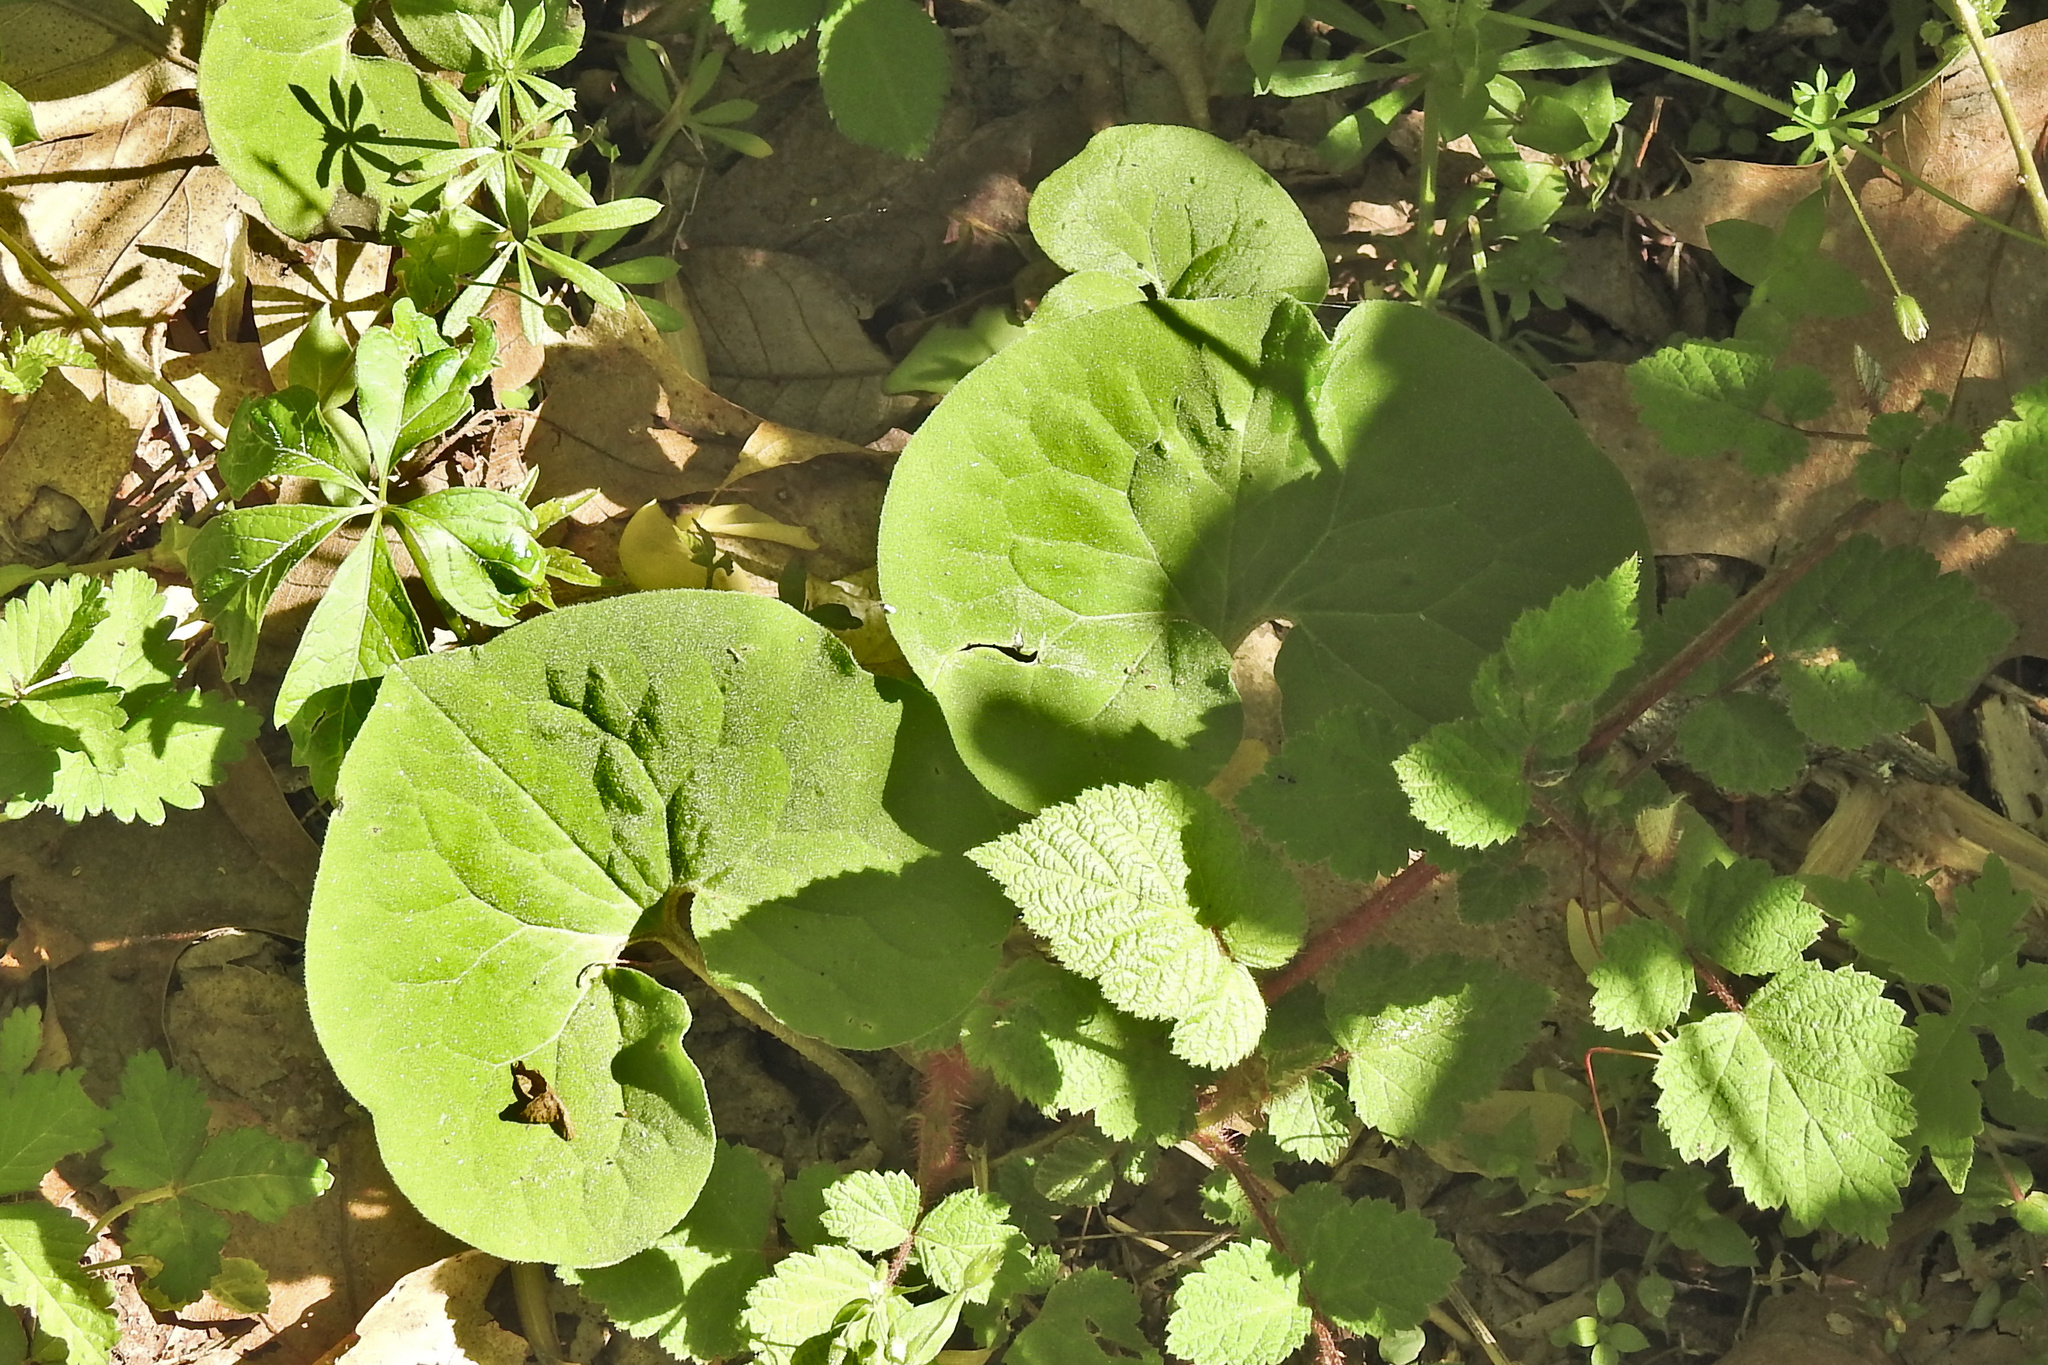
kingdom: Plantae
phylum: Tracheophyta
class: Magnoliopsida
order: Piperales
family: Aristolochiaceae
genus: Asarum
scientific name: Asarum canadense
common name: Wild ginger
